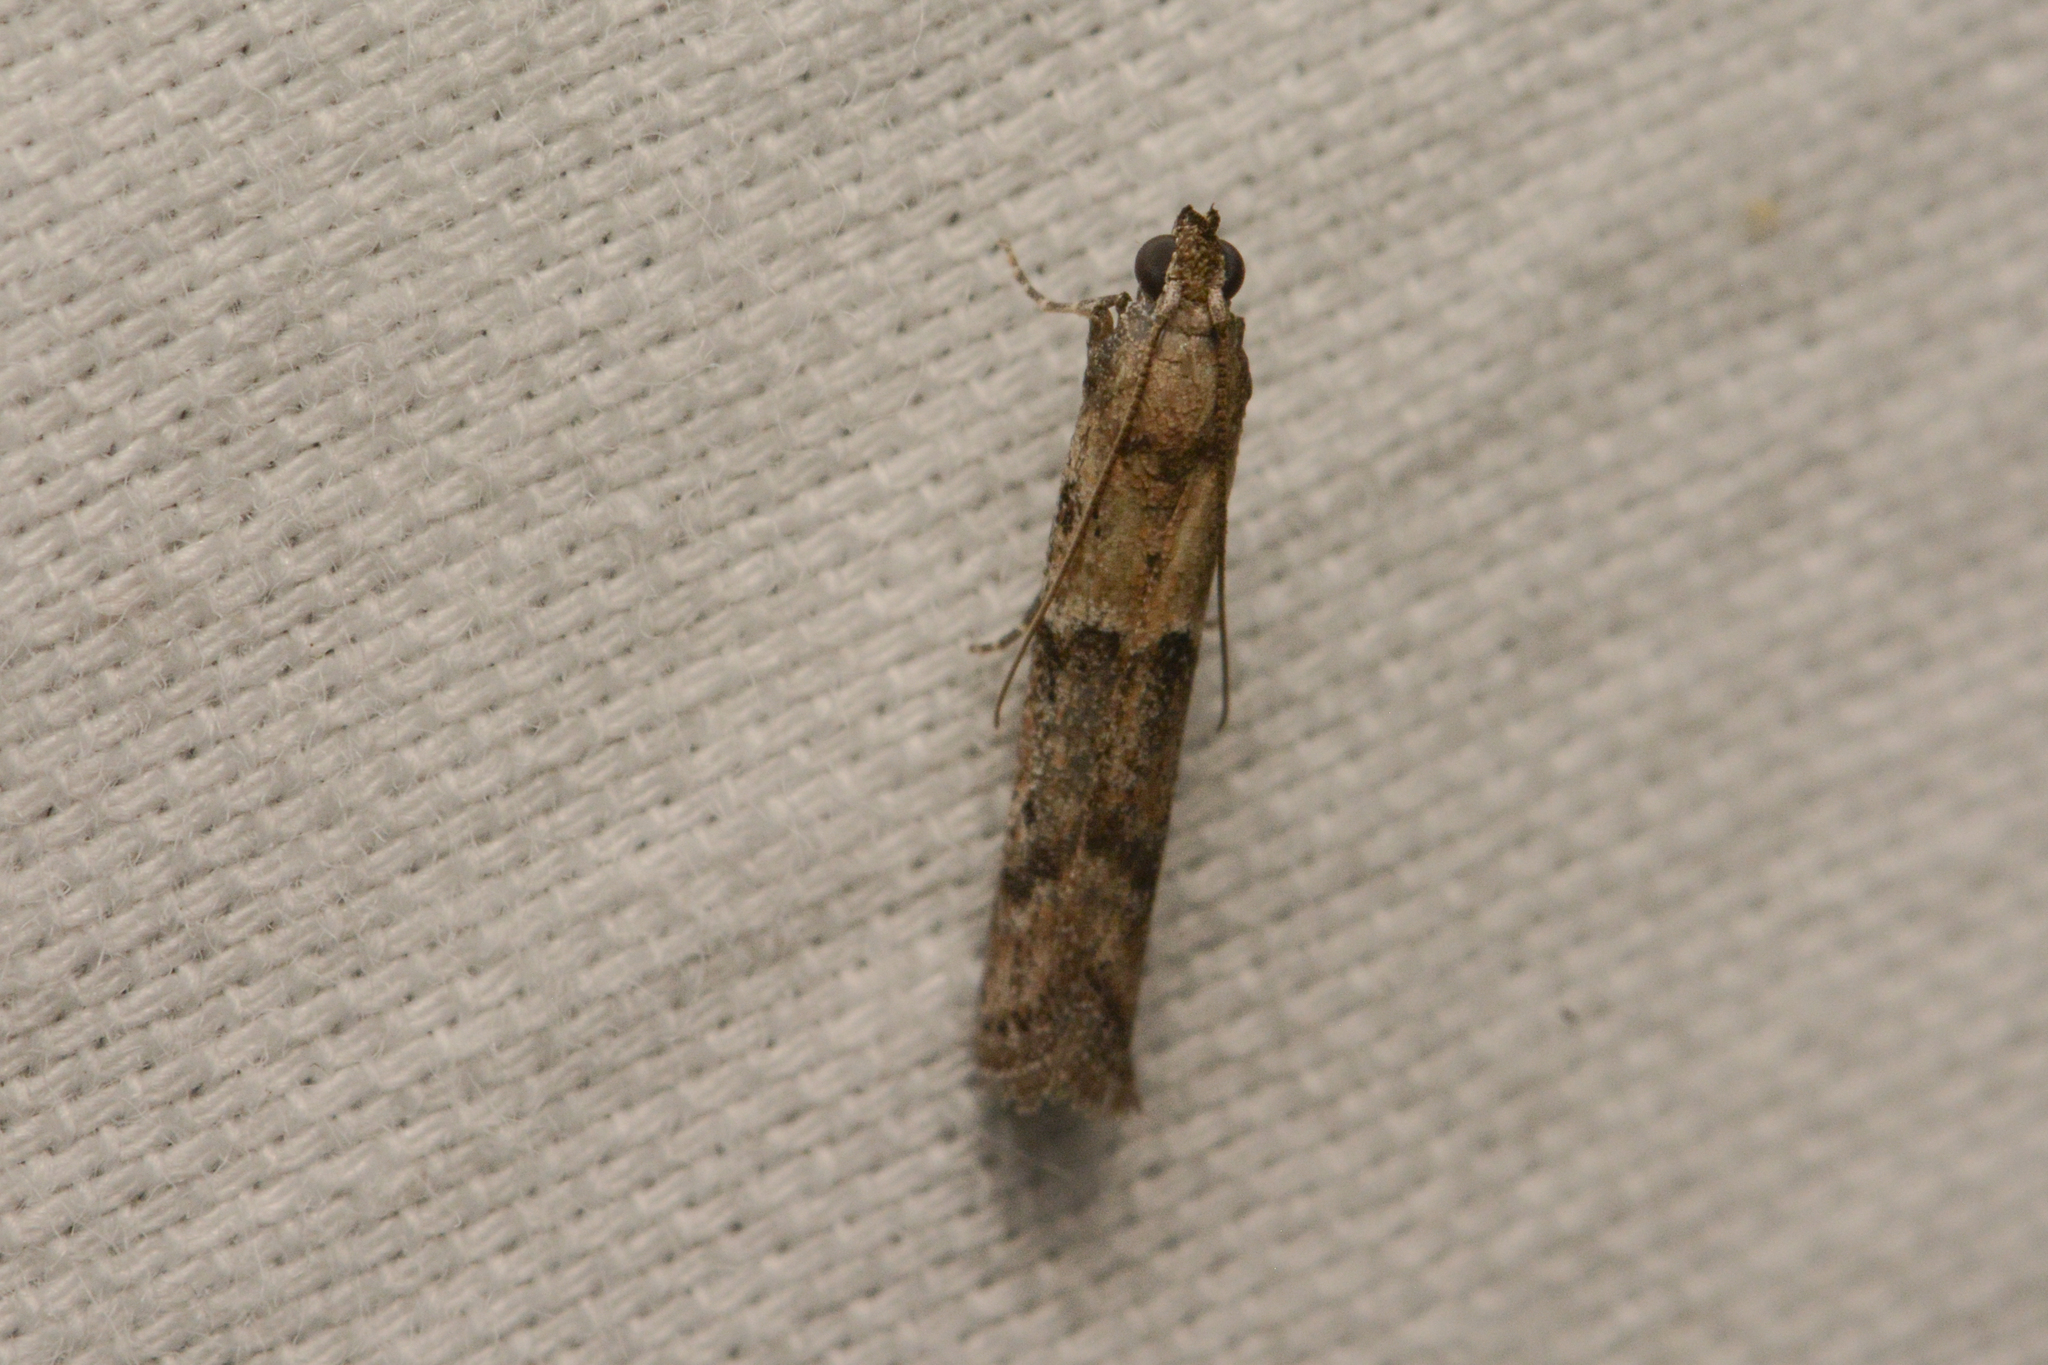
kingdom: Animalia
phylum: Arthropoda
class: Insecta
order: Lepidoptera
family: Pyralidae
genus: Ephestiodes
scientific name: Ephestiodes gilvescentella
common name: Moth
